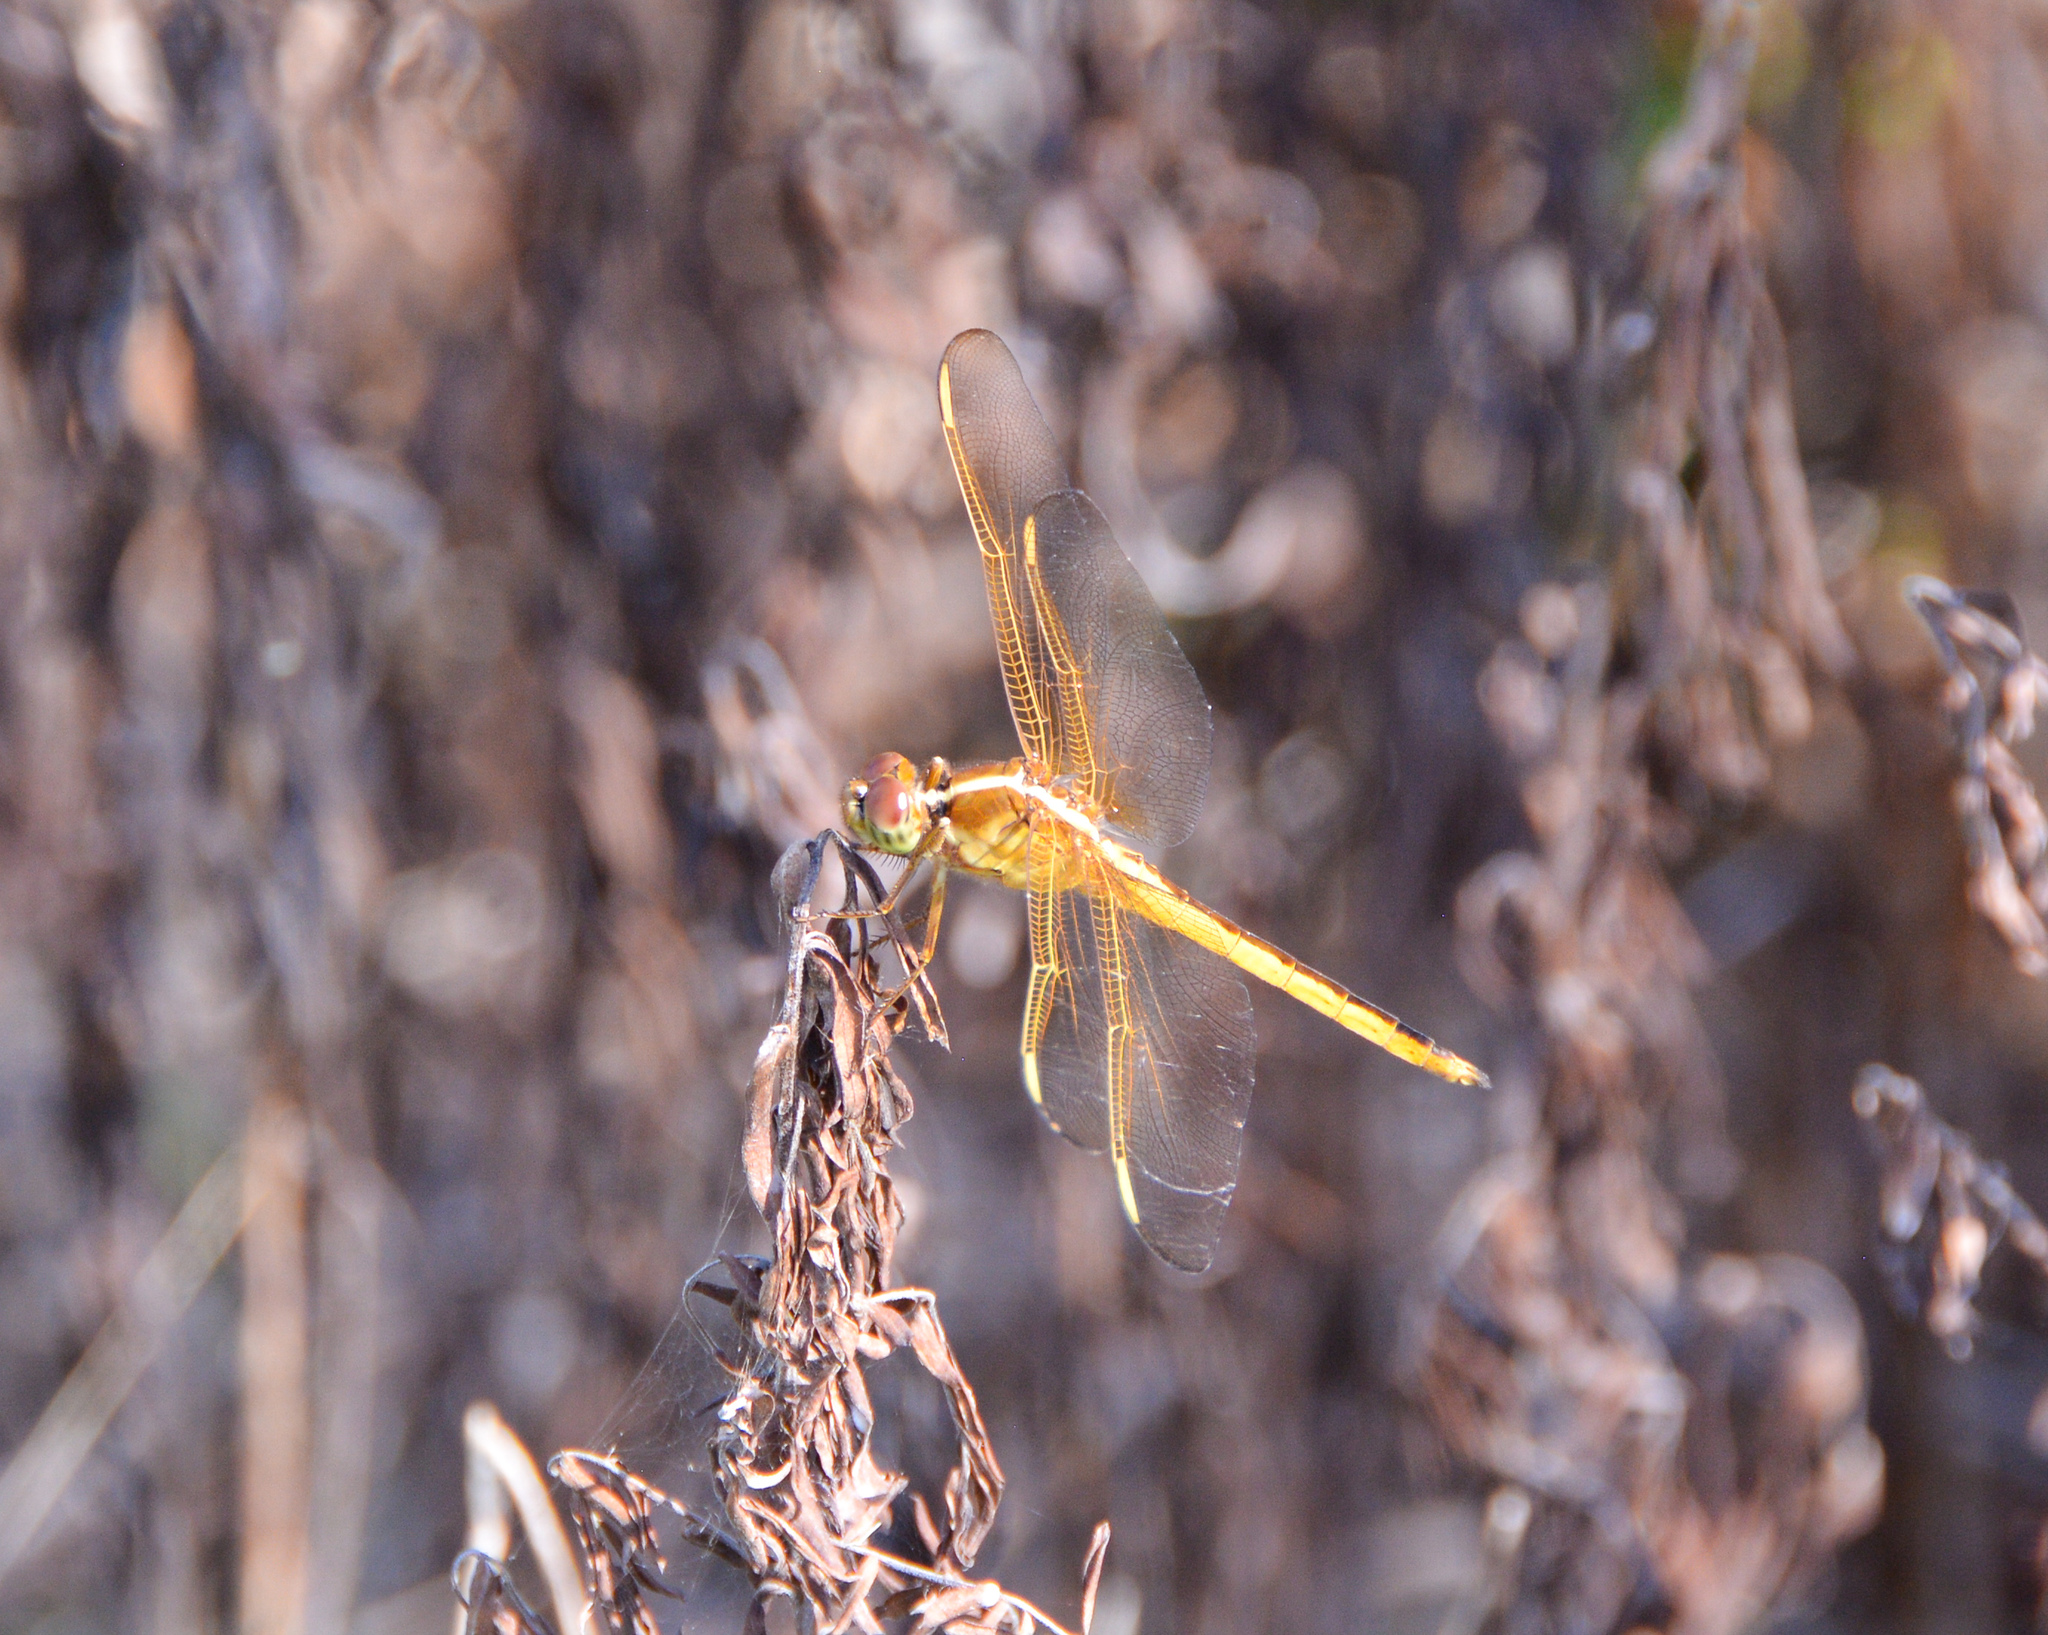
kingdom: Animalia
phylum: Arthropoda
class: Insecta
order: Odonata
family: Libellulidae
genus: Libellula
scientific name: Libellula needhami
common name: Needham's skimmer
